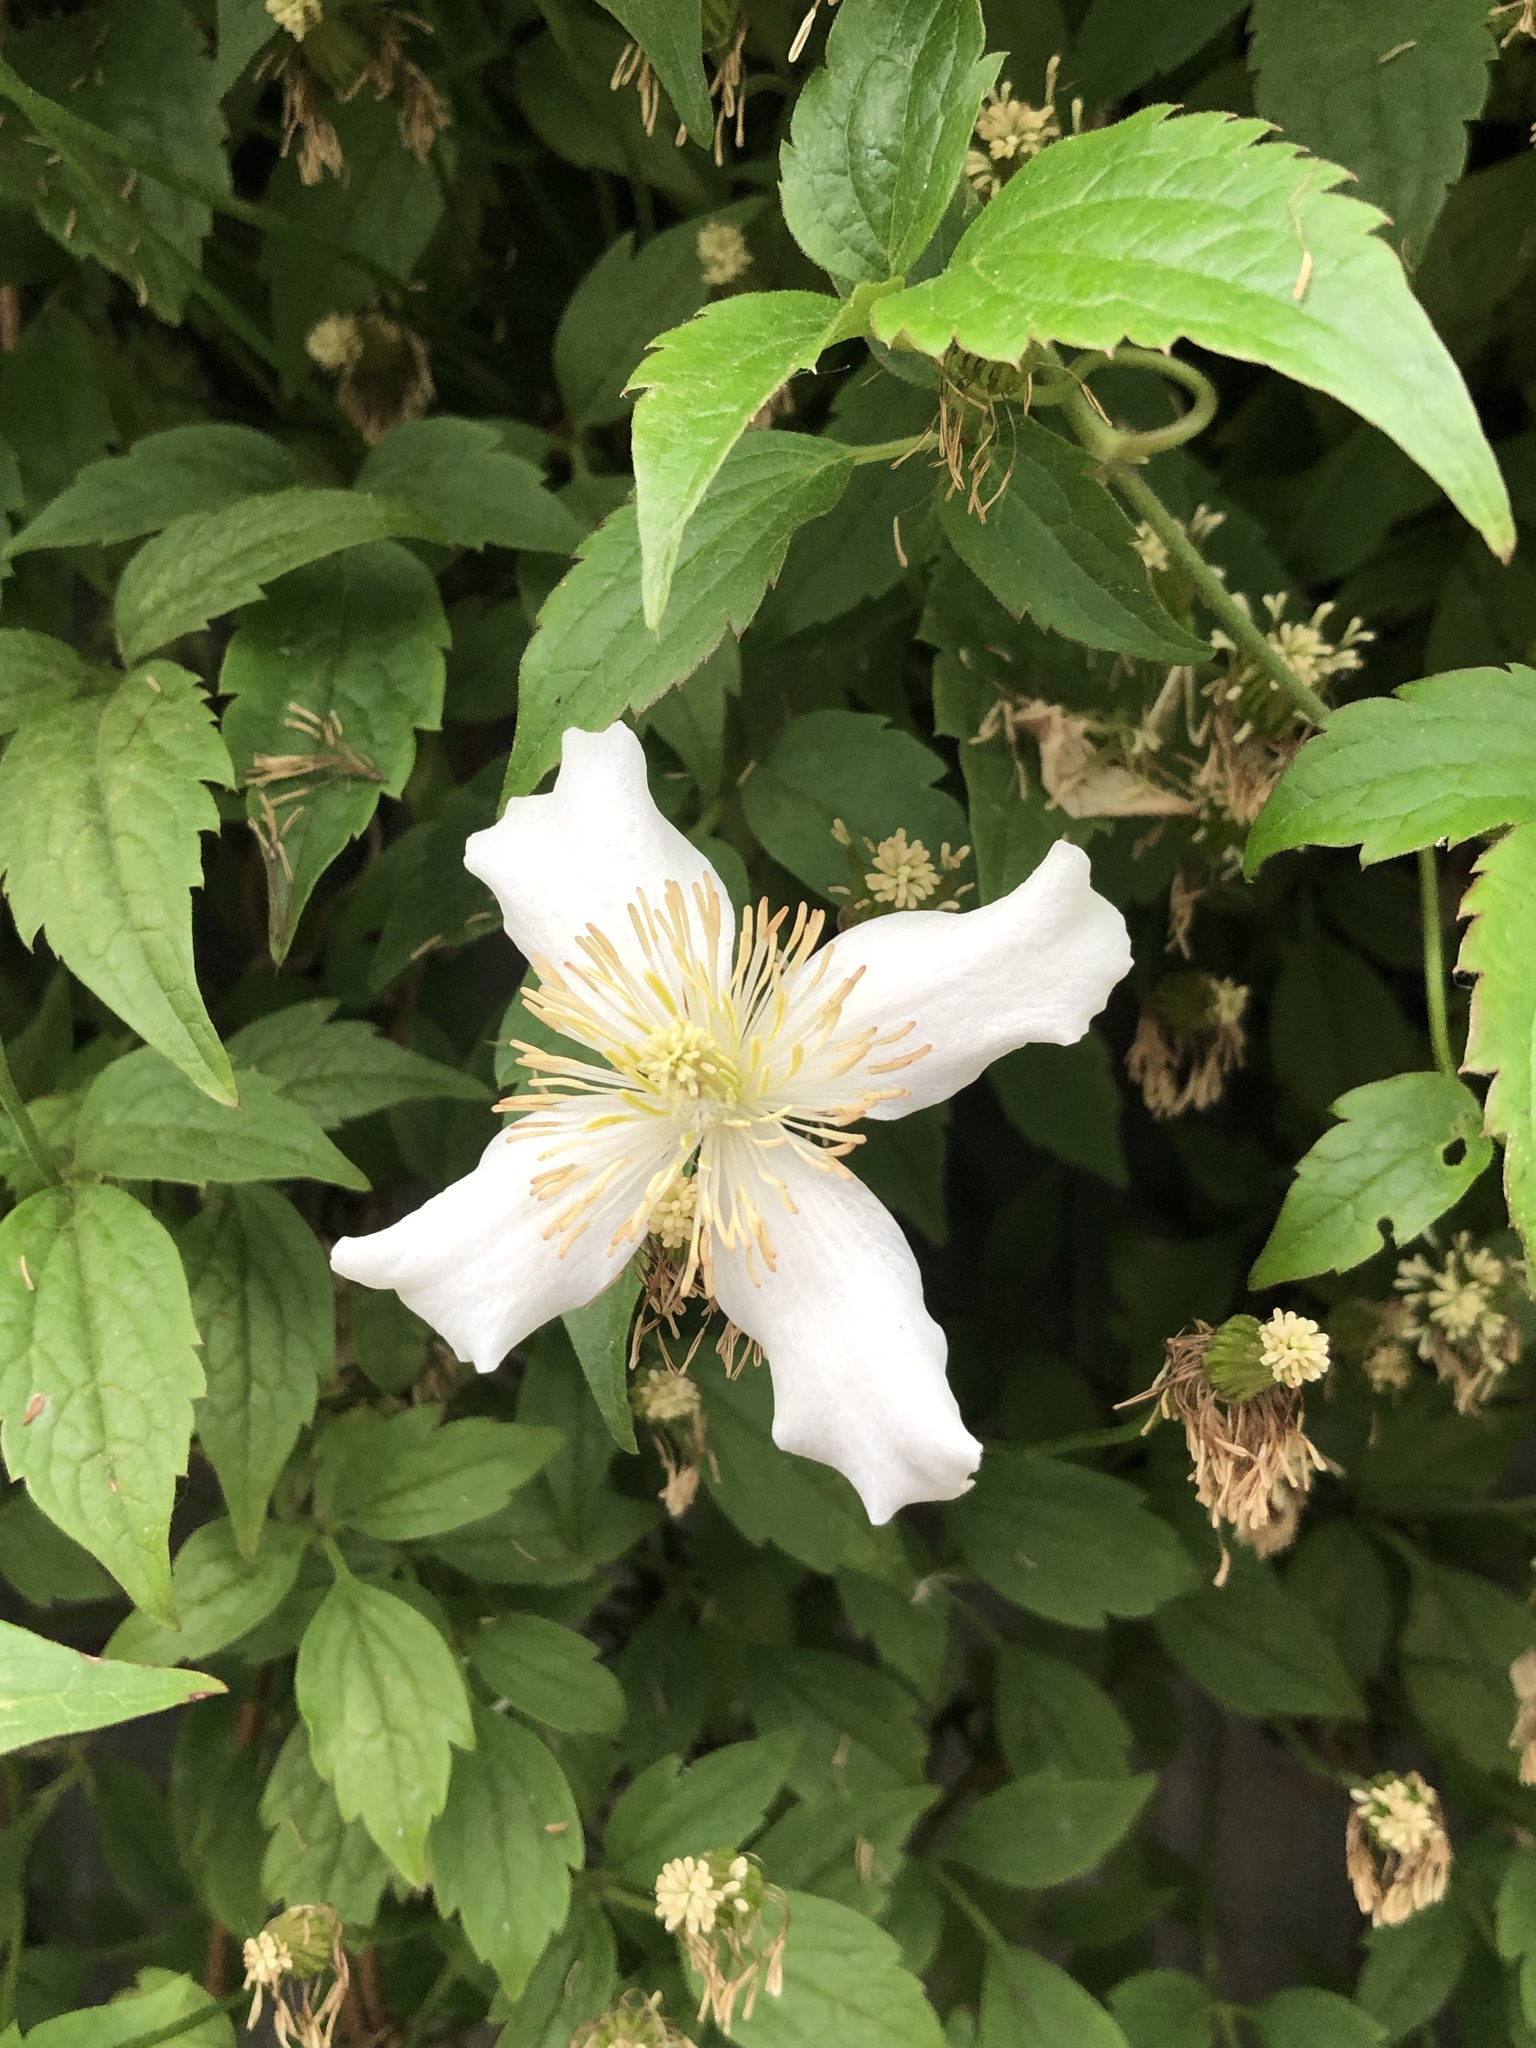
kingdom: Plantae
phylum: Tracheophyta
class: Magnoliopsida
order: Ranunculales
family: Ranunculaceae
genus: Clematis
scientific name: Clematis montana
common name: Himalayan clematis
